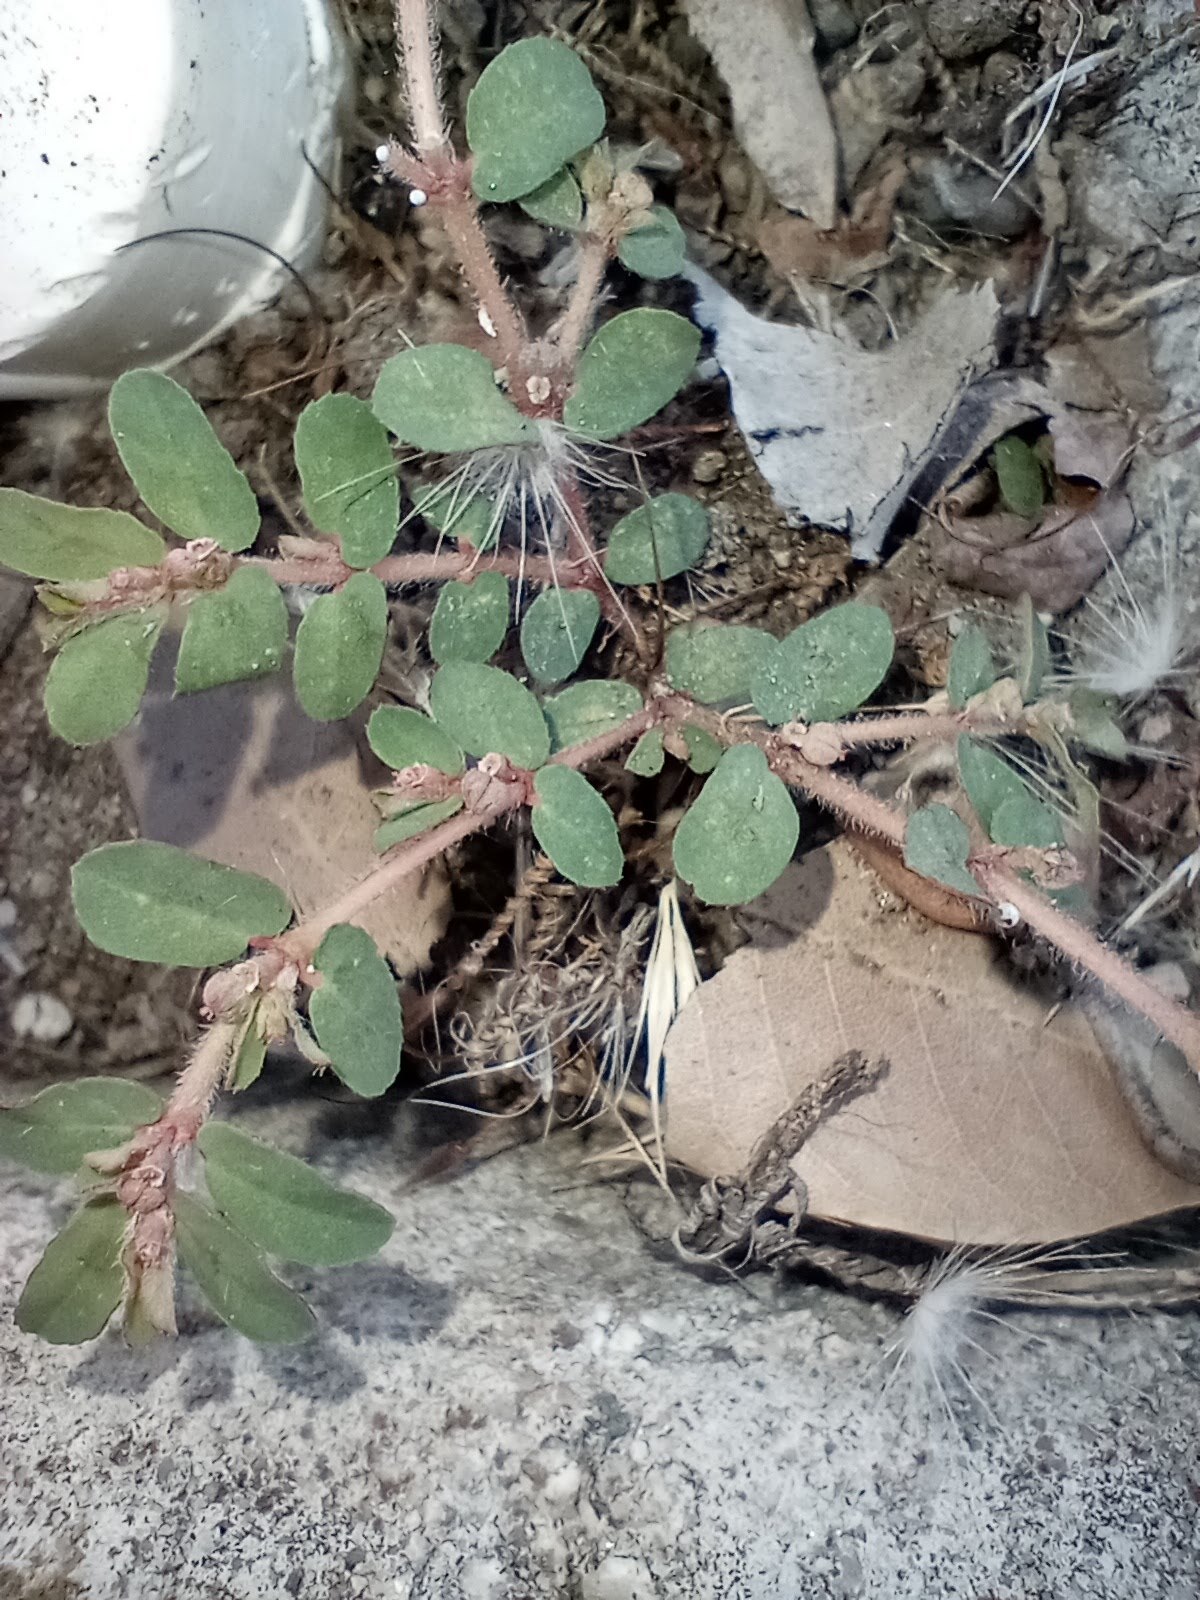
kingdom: Plantae
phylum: Tracheophyta
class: Magnoliopsida
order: Malpighiales
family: Euphorbiaceae
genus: Euphorbia
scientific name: Euphorbia maculata
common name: Spotted spurge
